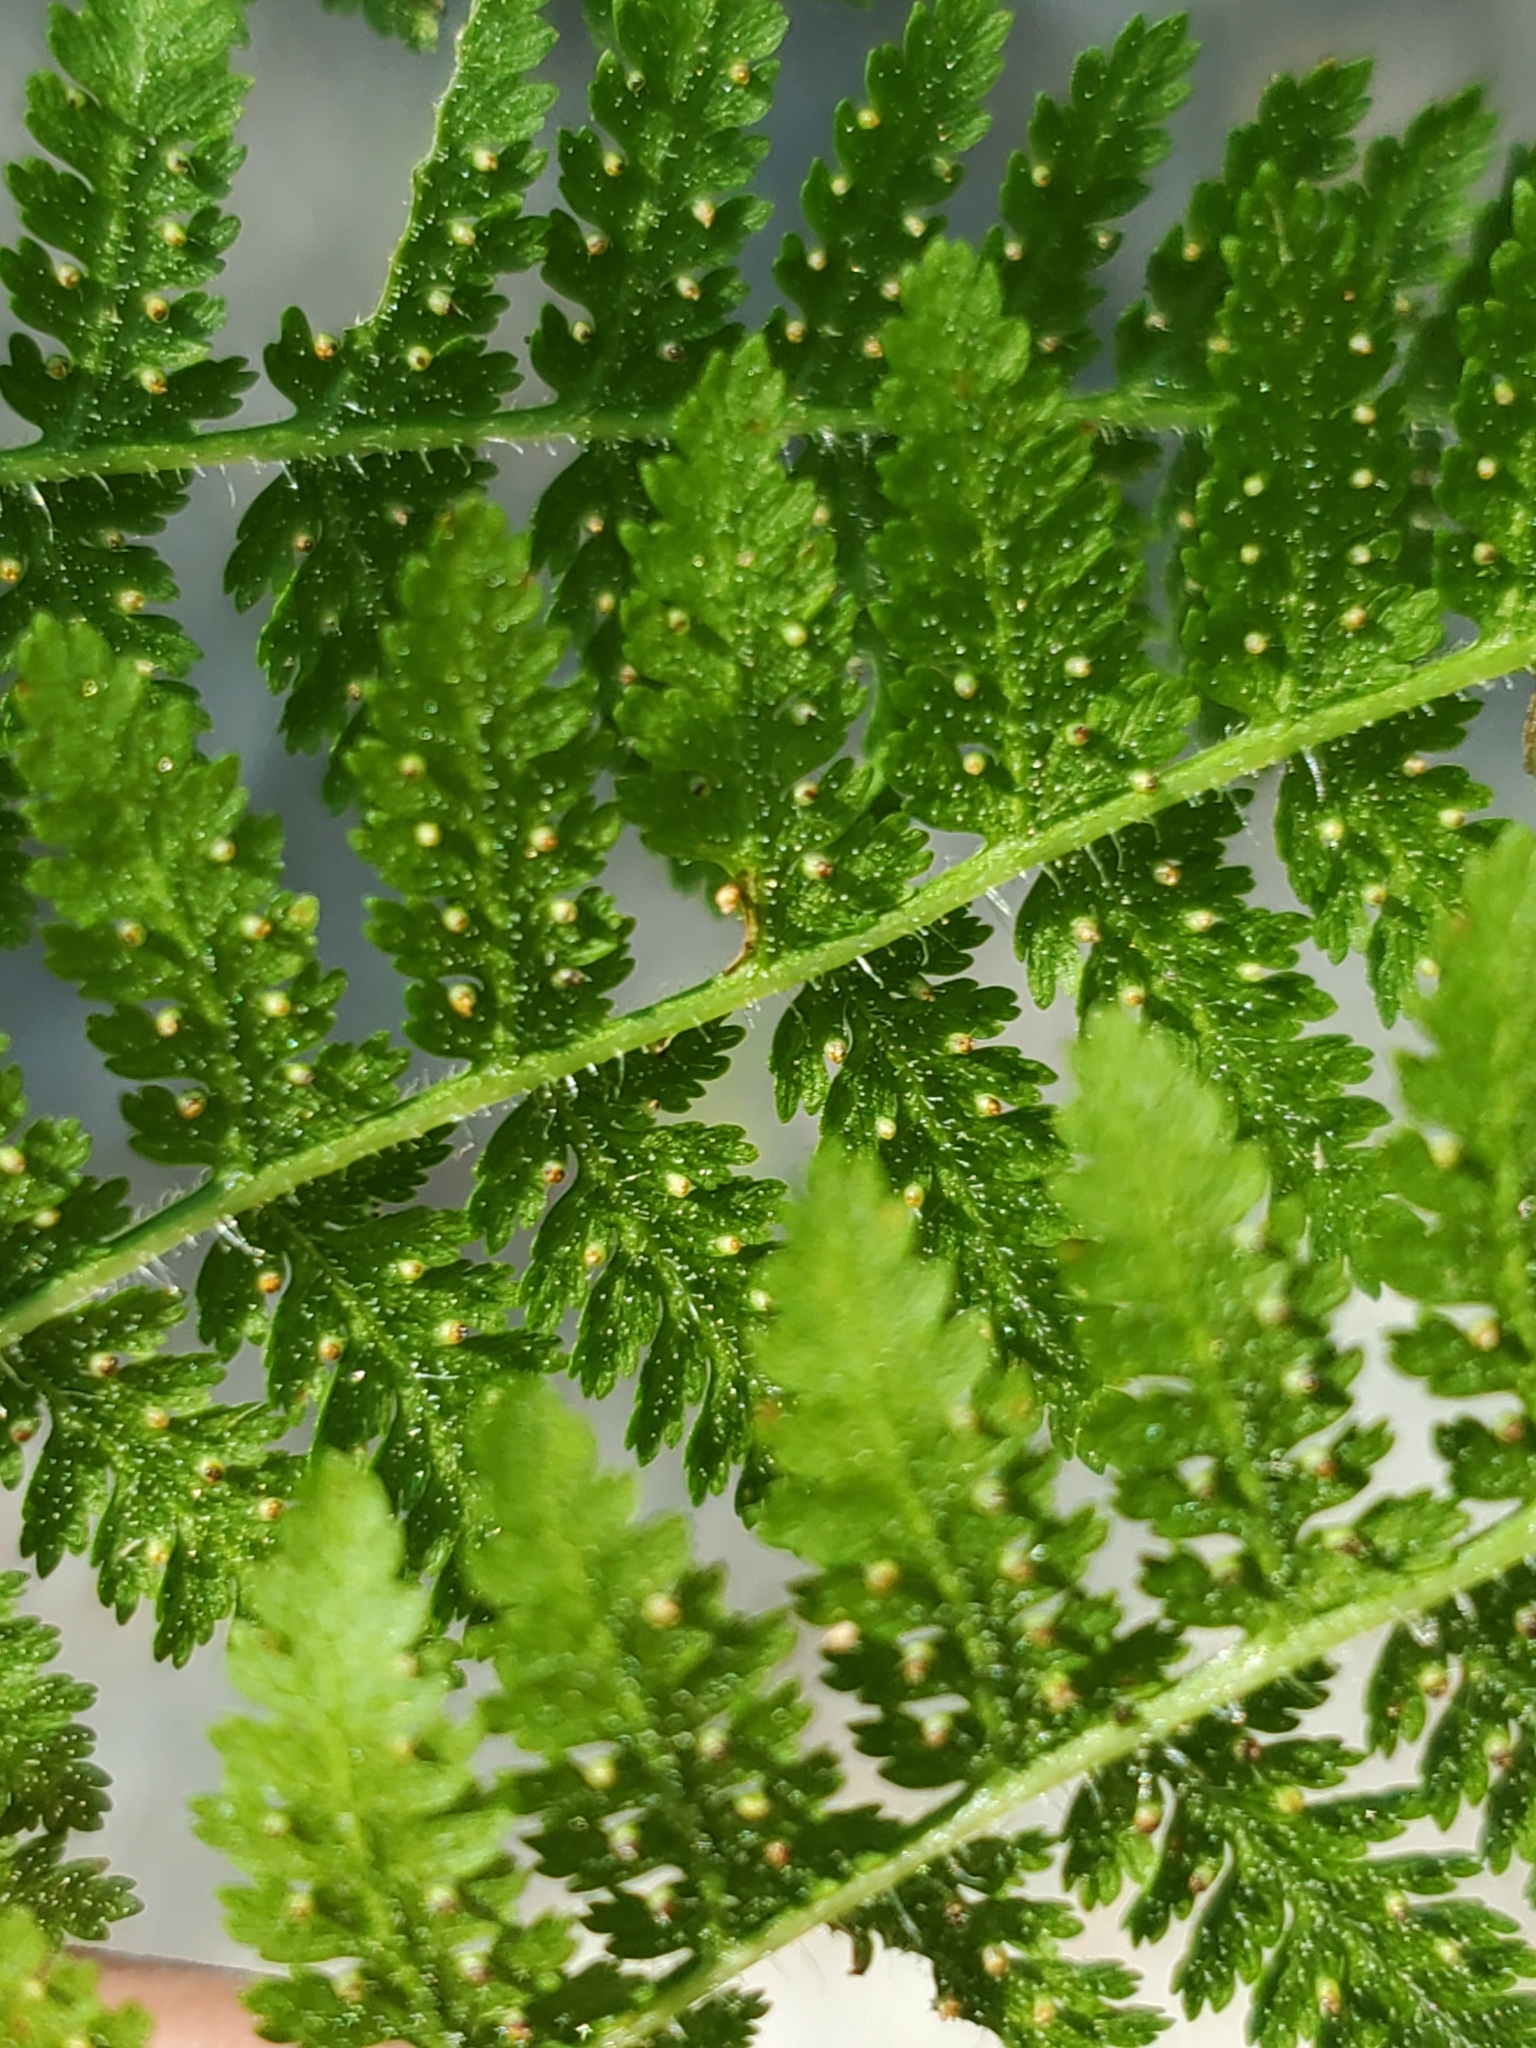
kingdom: Plantae
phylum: Tracheophyta
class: Polypodiopsida
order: Polypodiales
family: Dennstaedtiaceae
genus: Sitobolium
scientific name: Sitobolium punctilobum
